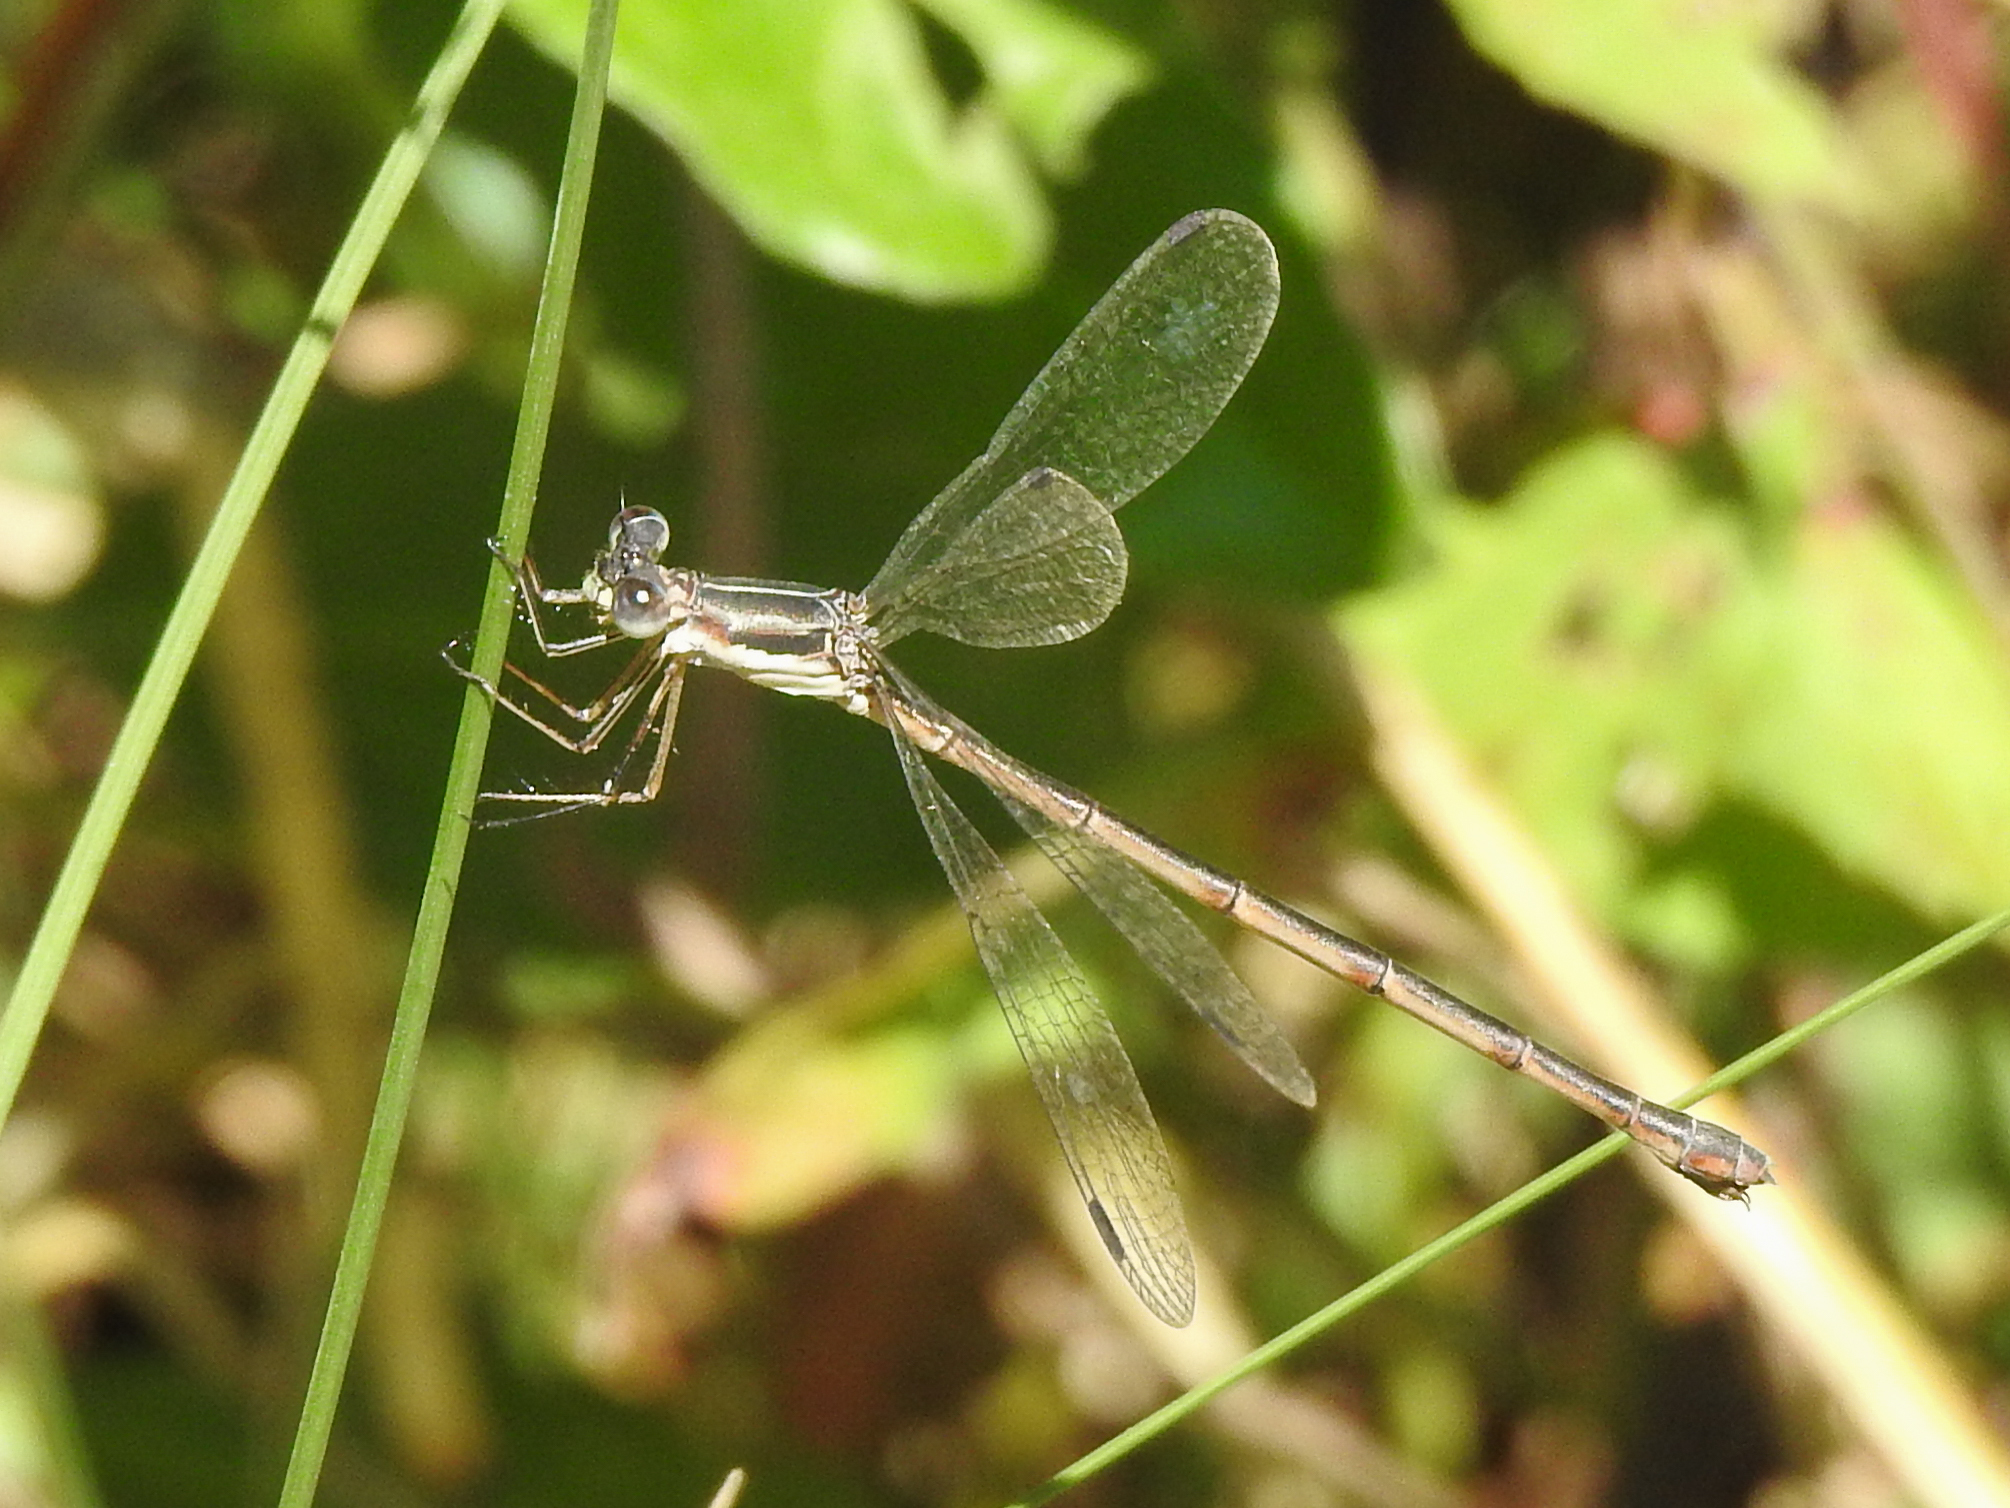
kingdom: Animalia
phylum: Arthropoda
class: Insecta
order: Odonata
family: Lestidae
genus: Lestes
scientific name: Lestes rectangularis
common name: Slender spreadwing
